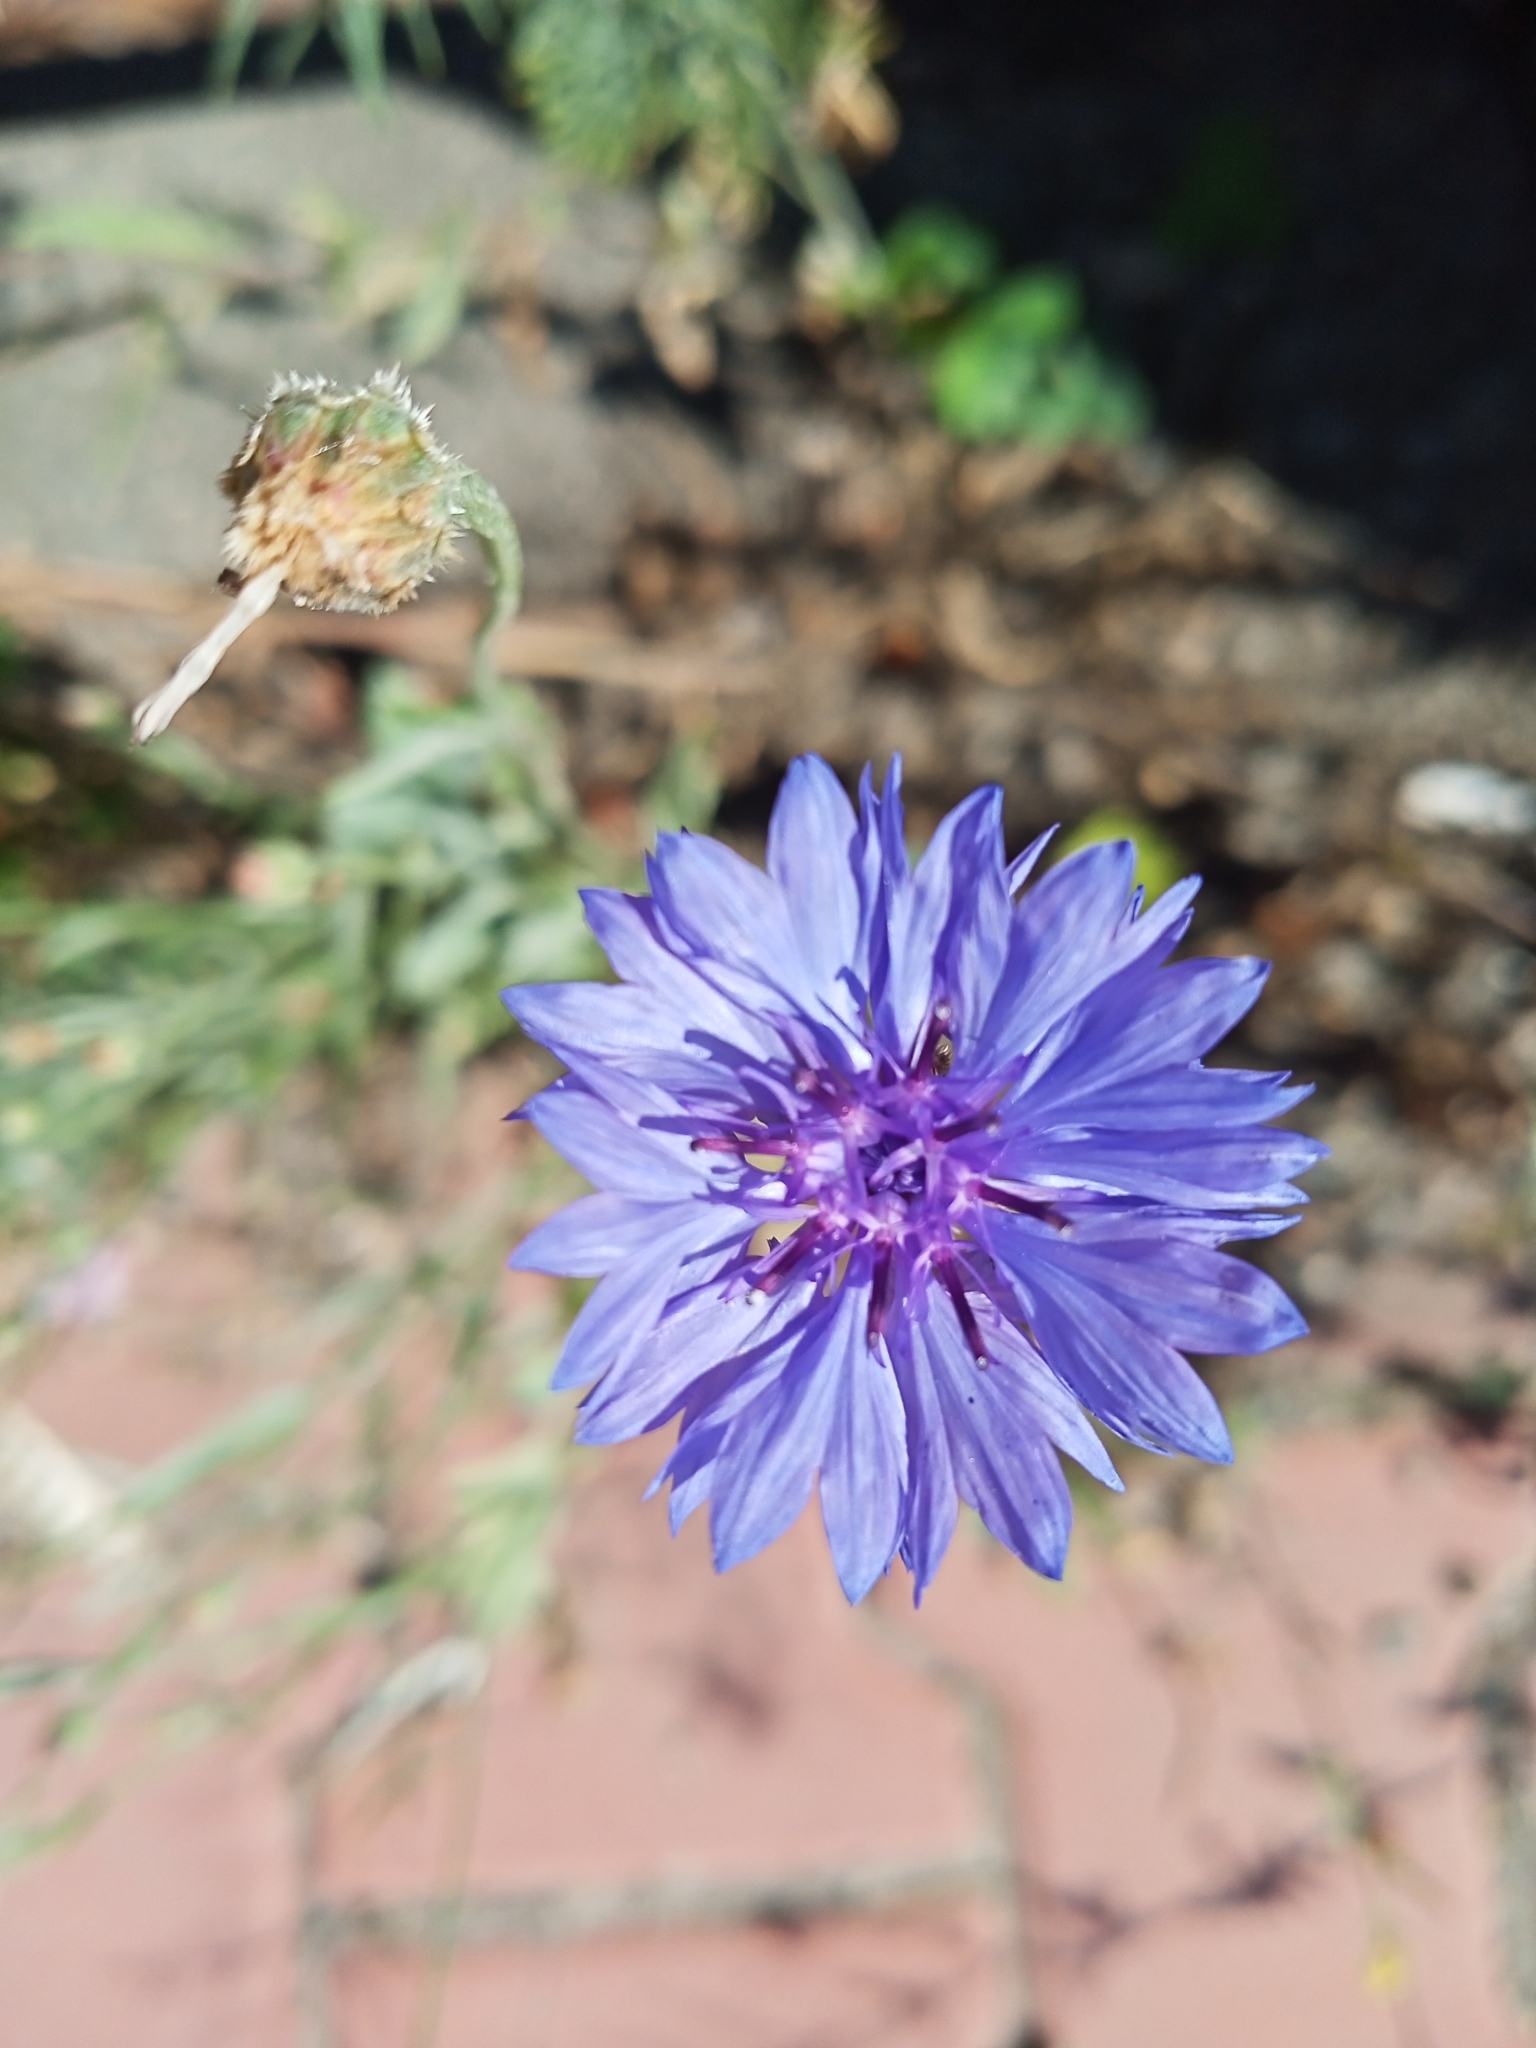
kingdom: Plantae
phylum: Tracheophyta
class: Magnoliopsida
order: Asterales
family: Asteraceae
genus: Centaurea
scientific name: Centaurea cyanus
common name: Cornflower
